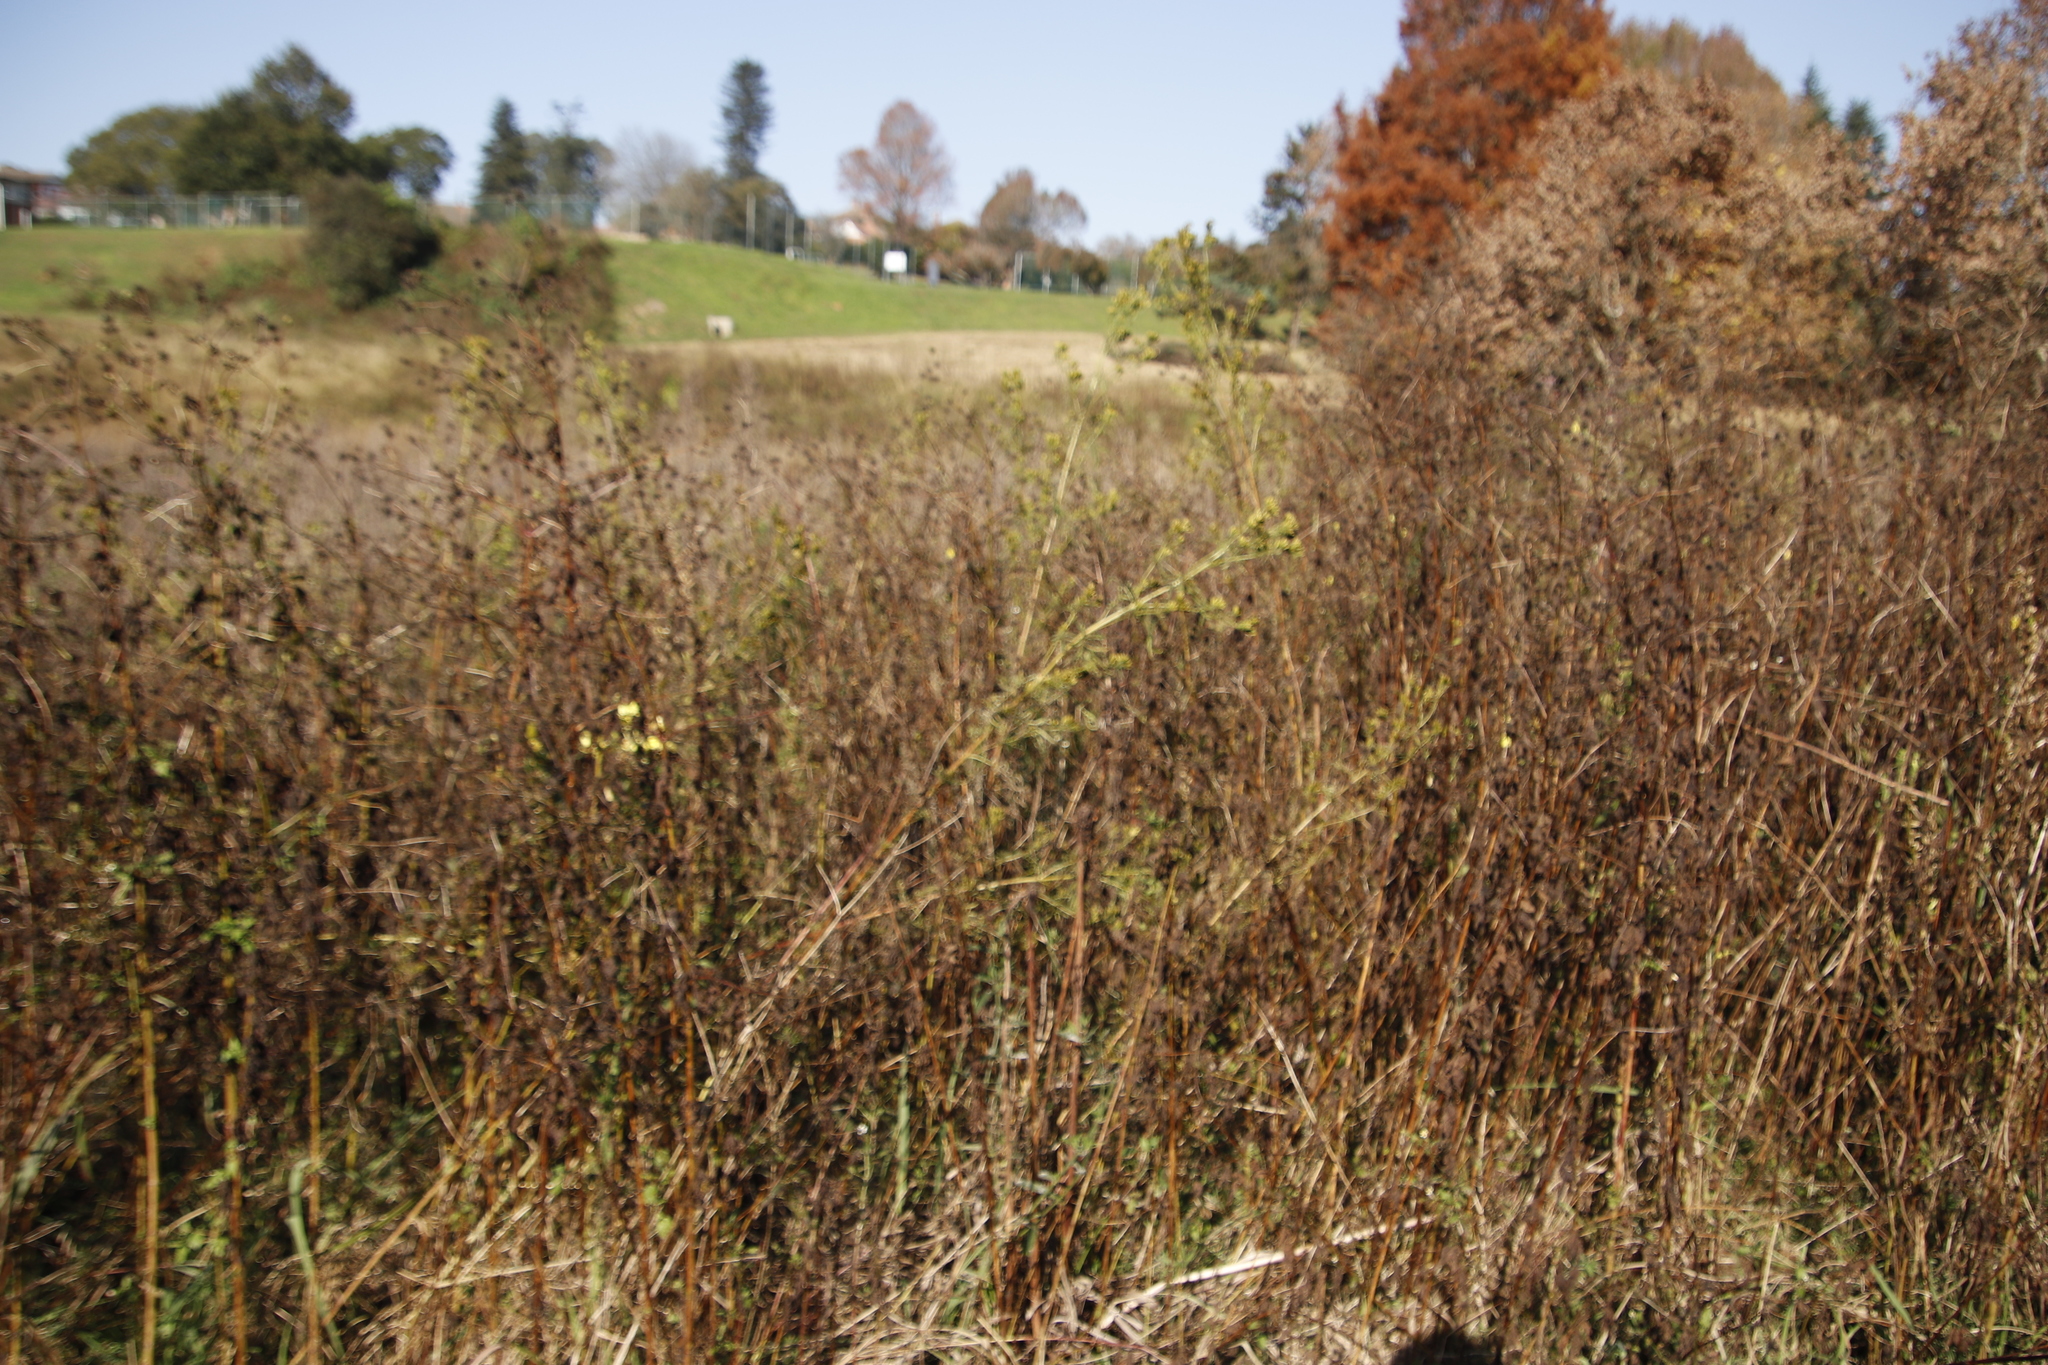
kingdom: Plantae
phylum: Tracheophyta
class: Magnoliopsida
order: Asterales
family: Asteraceae
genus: Tagetes
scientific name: Tagetes minuta
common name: Muster john henry
